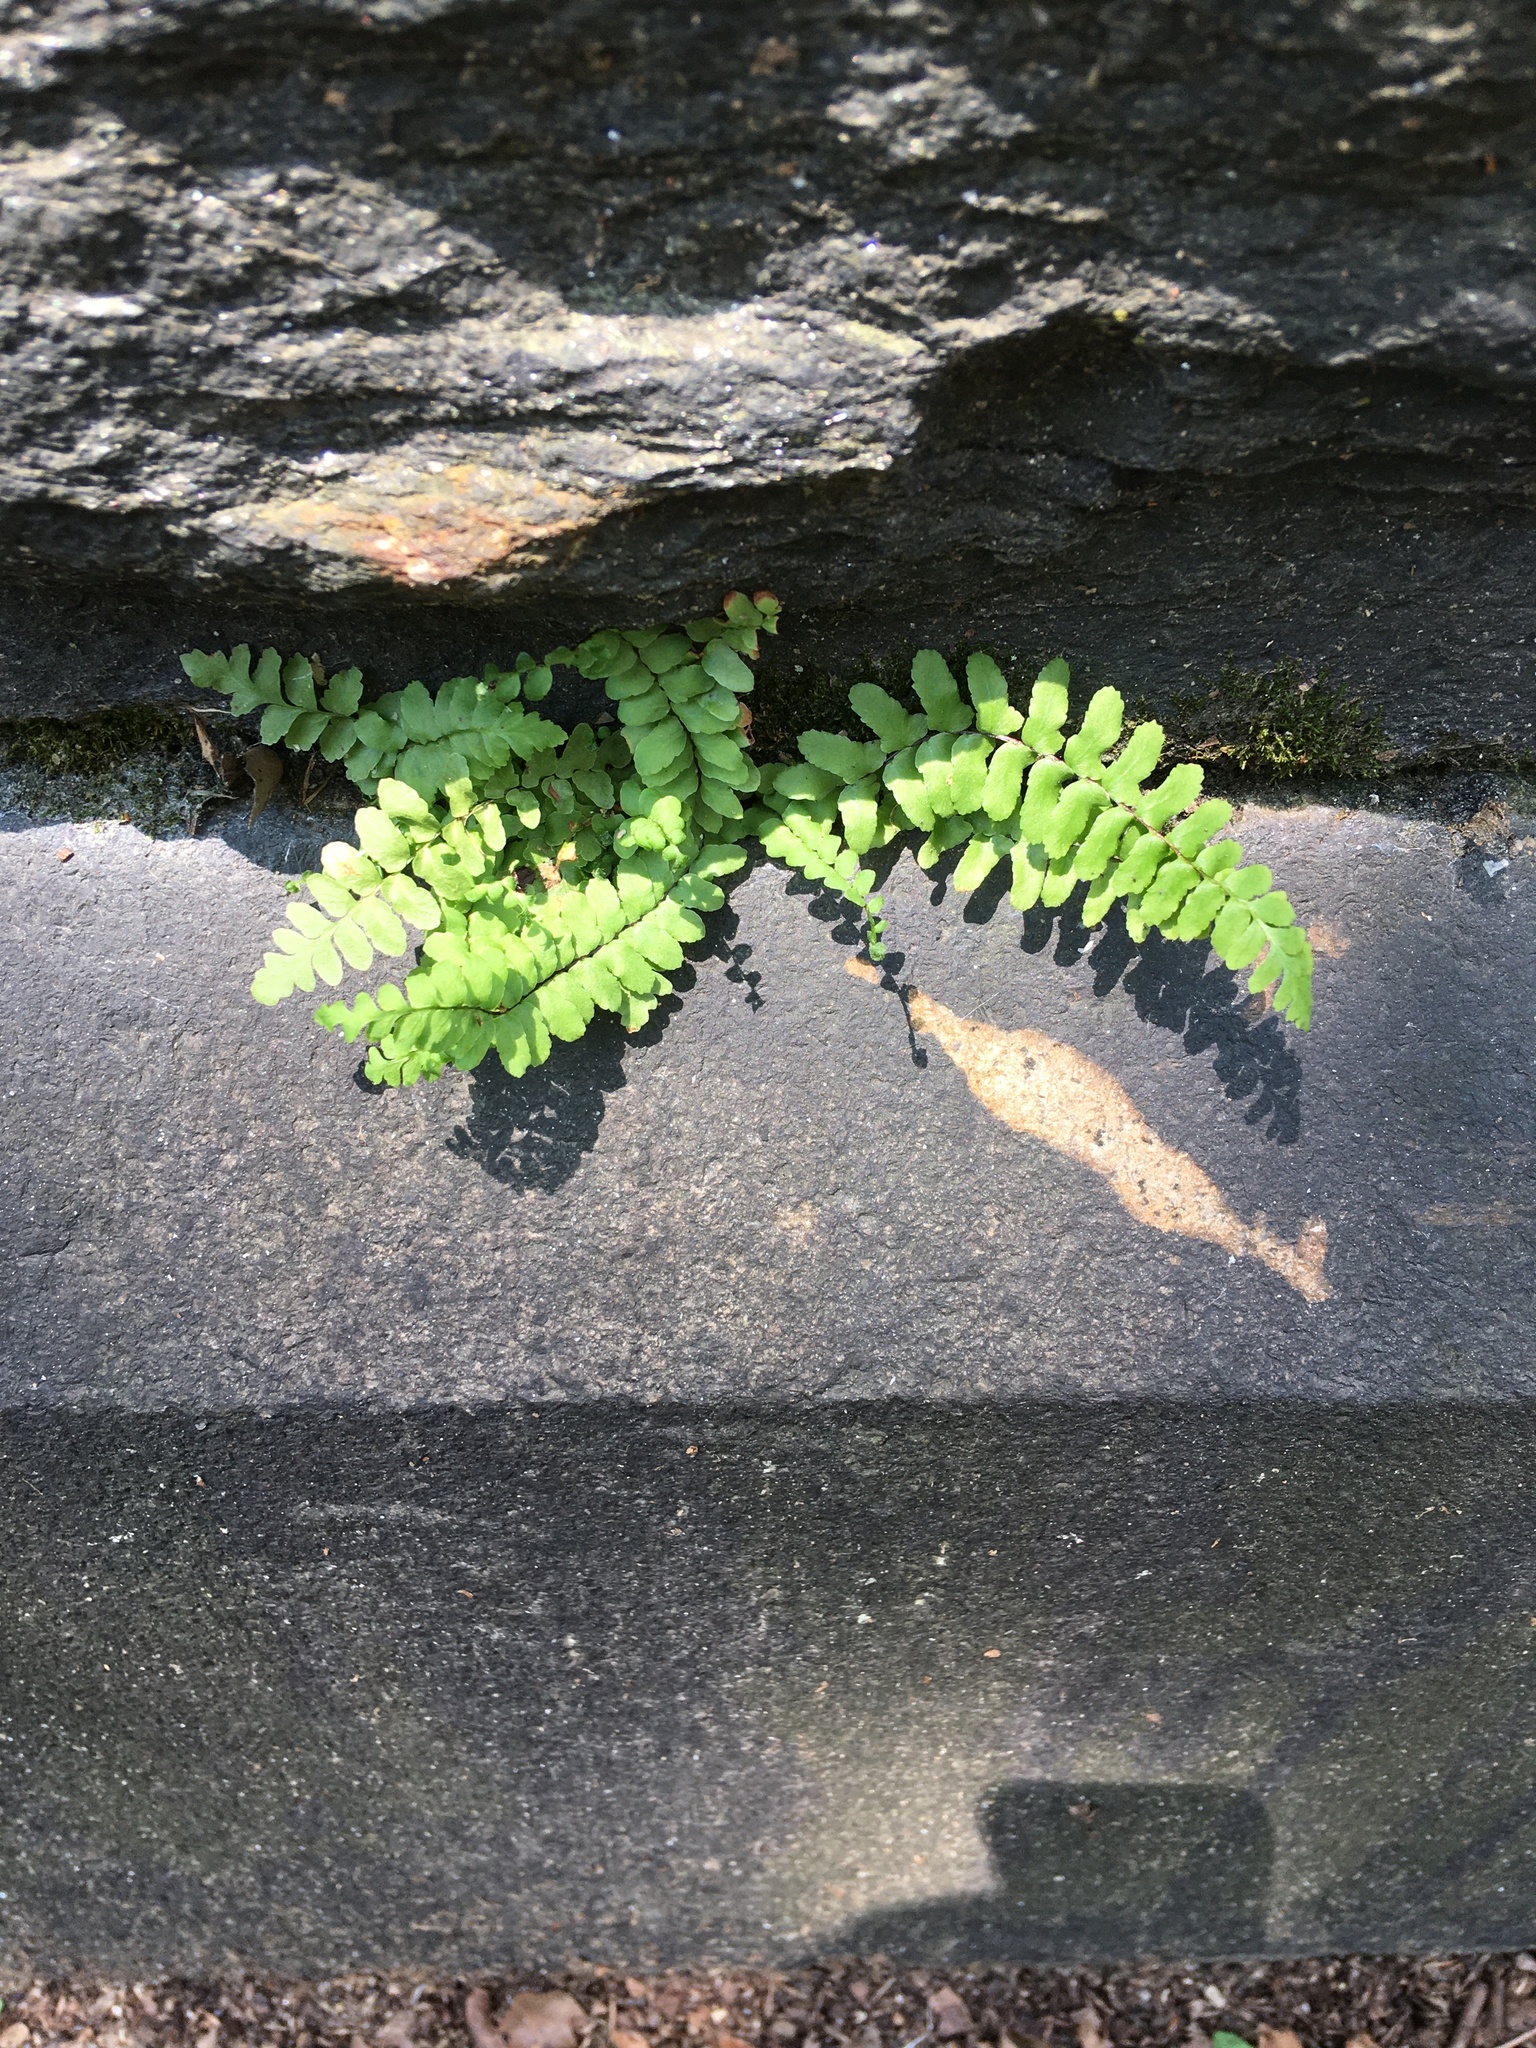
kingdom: Plantae
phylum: Tracheophyta
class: Polypodiopsida
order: Polypodiales
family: Aspleniaceae
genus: Asplenium
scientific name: Asplenium platyneuron
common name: Ebony spleenwort
